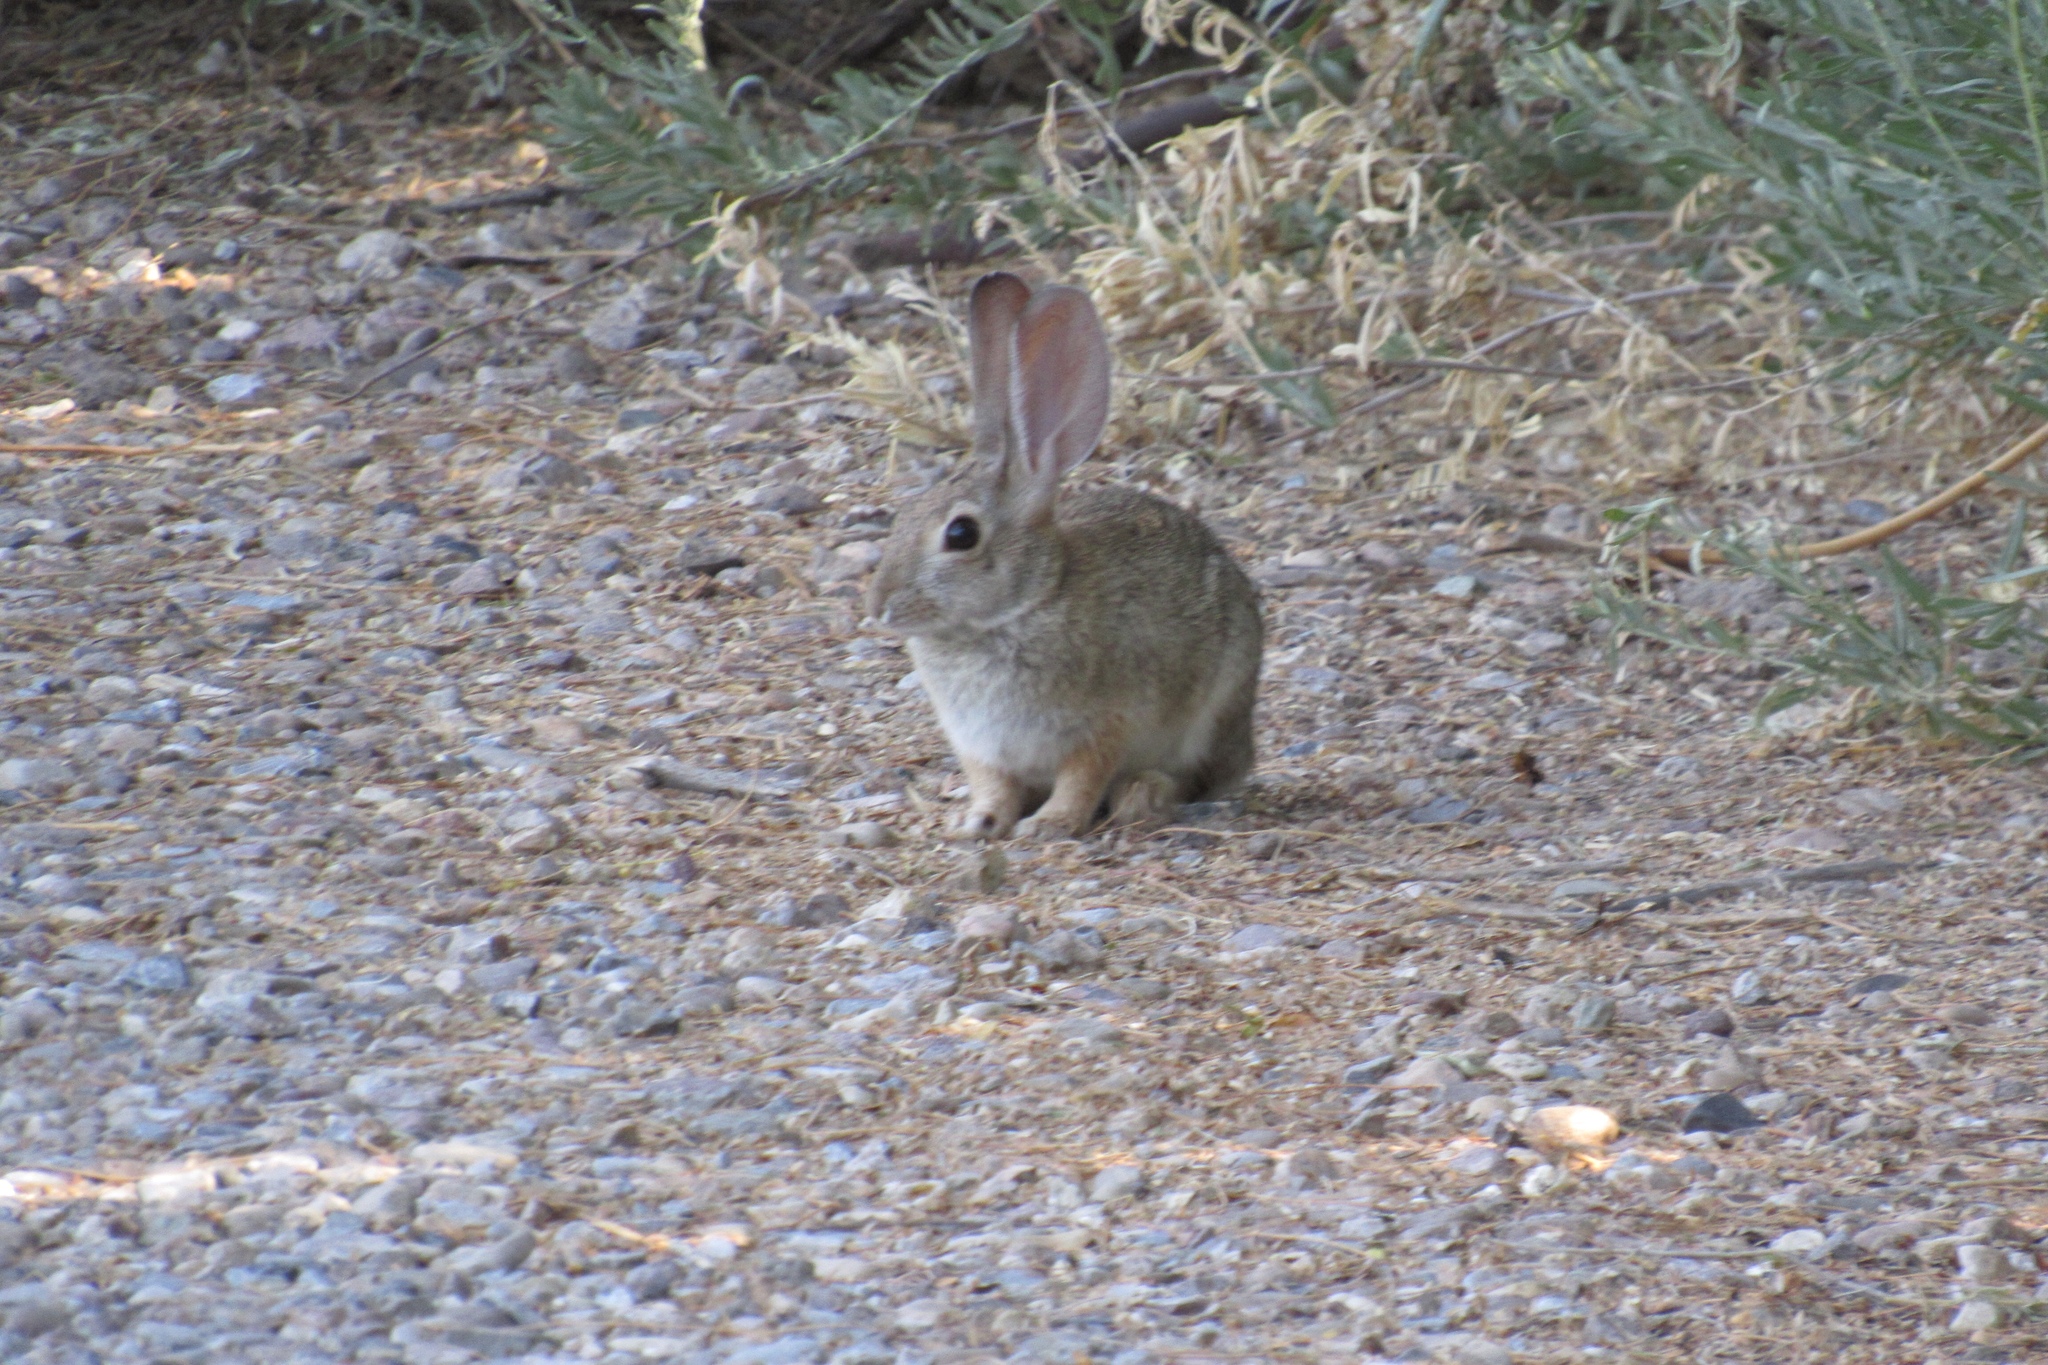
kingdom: Animalia
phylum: Chordata
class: Mammalia
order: Lagomorpha
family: Leporidae
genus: Sylvilagus
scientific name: Sylvilagus audubonii
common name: Desert cottontail
